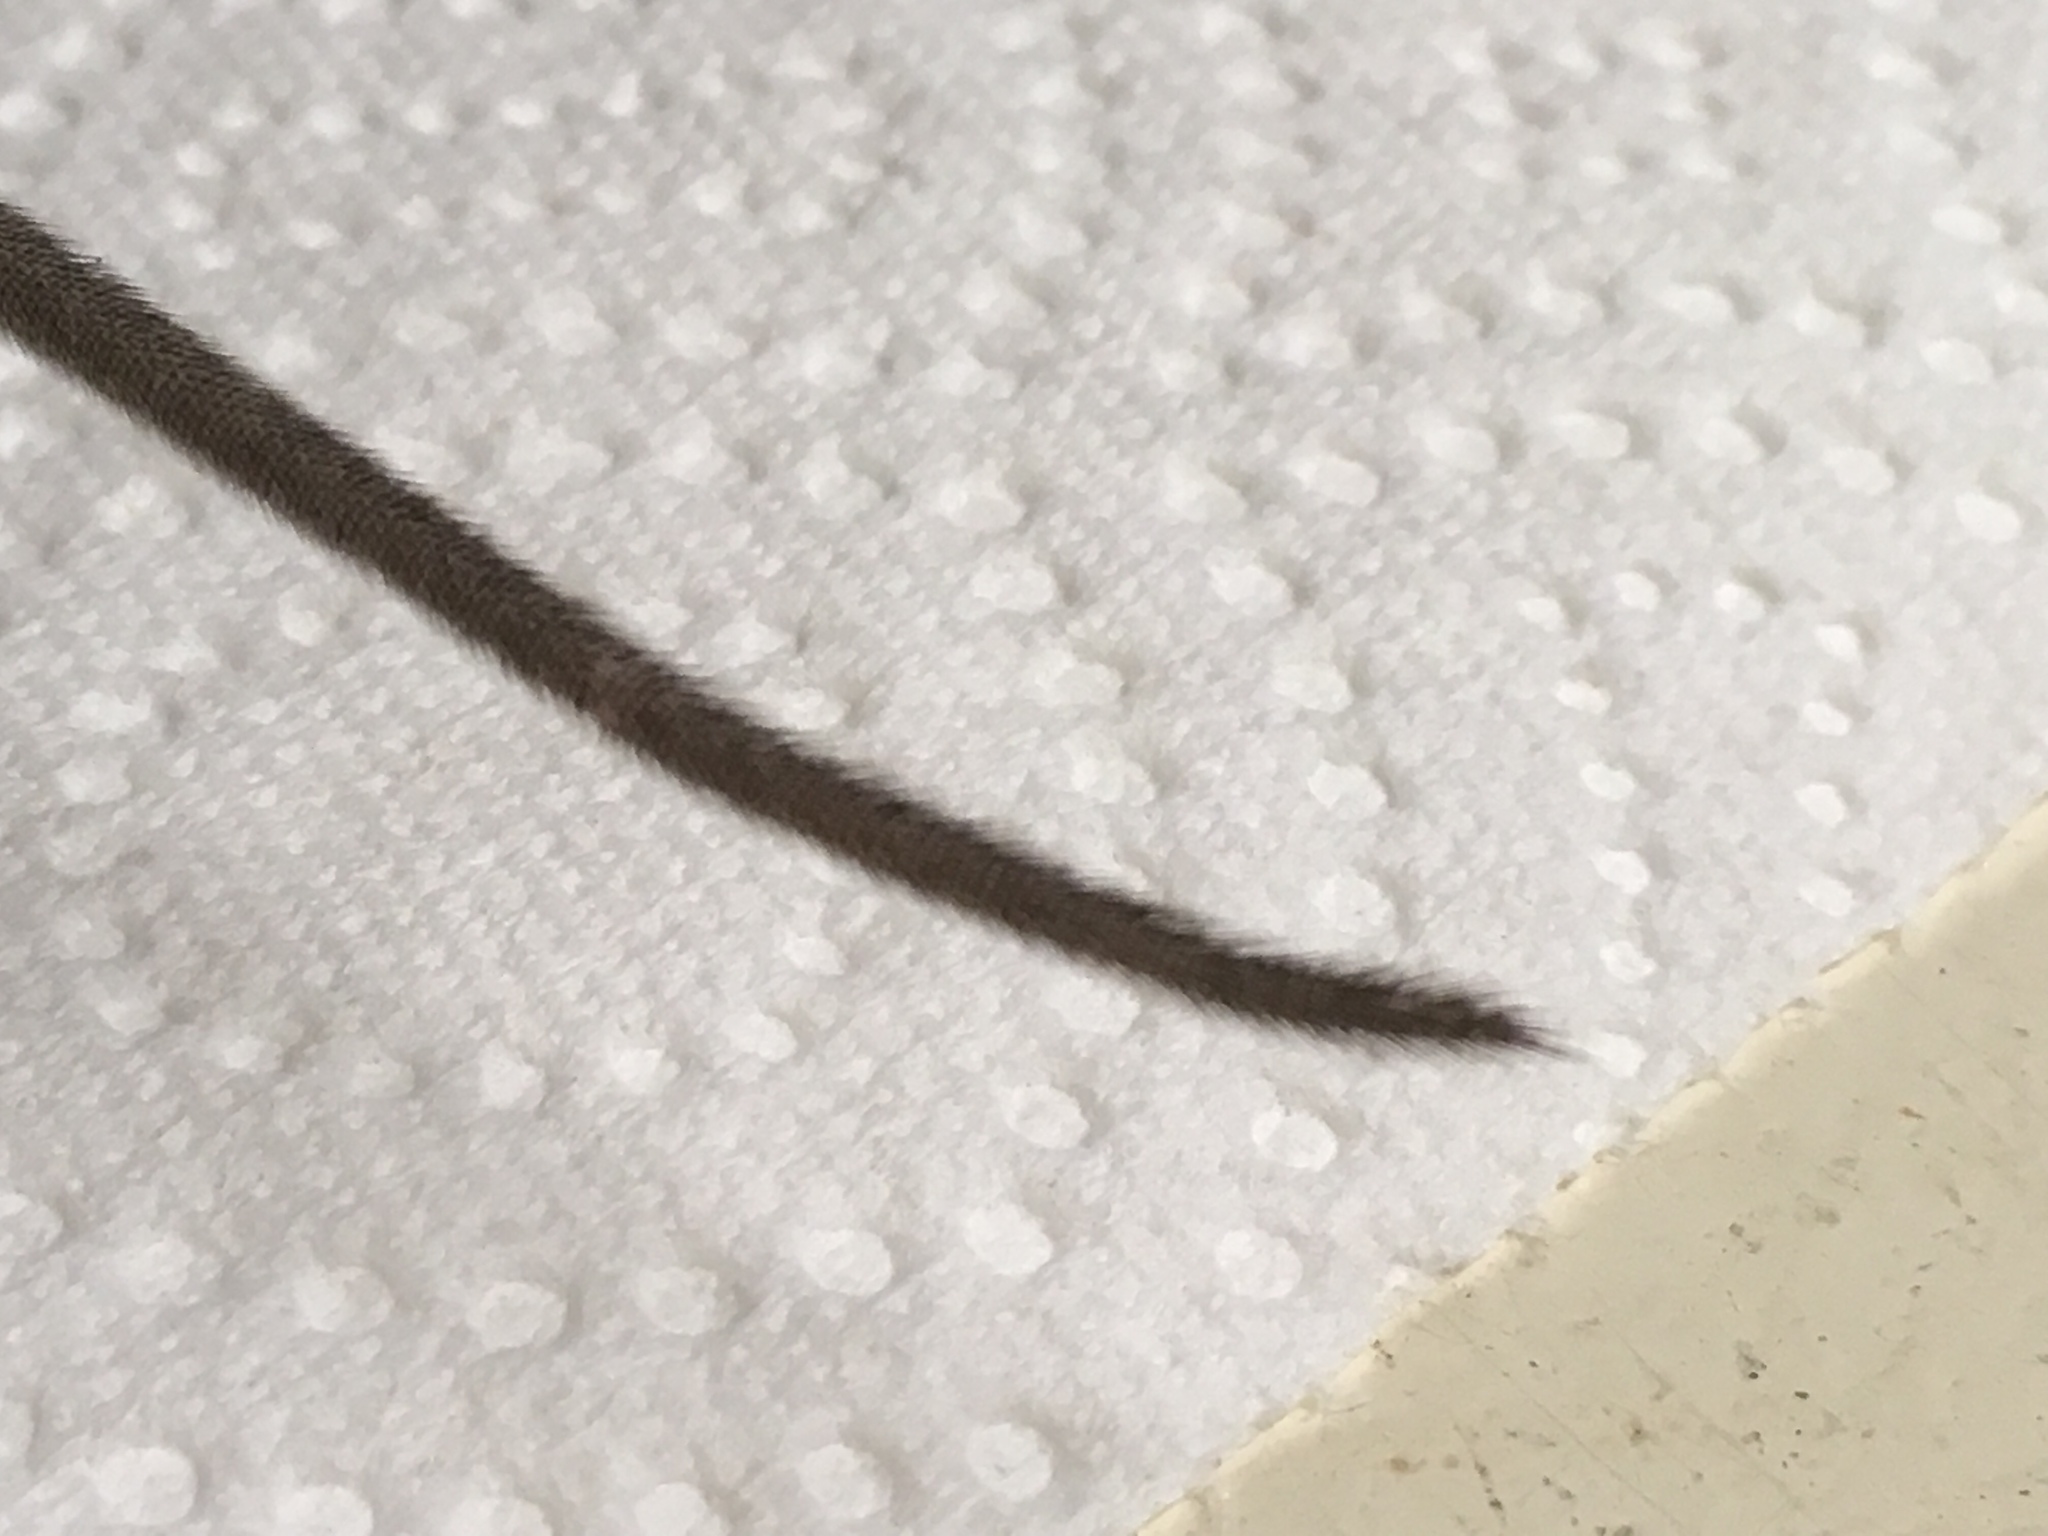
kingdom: Animalia
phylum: Chordata
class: Mammalia
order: Rodentia
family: Cricetidae
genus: Peromyscus
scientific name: Peromyscus eremicus
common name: Cactus deermouse
